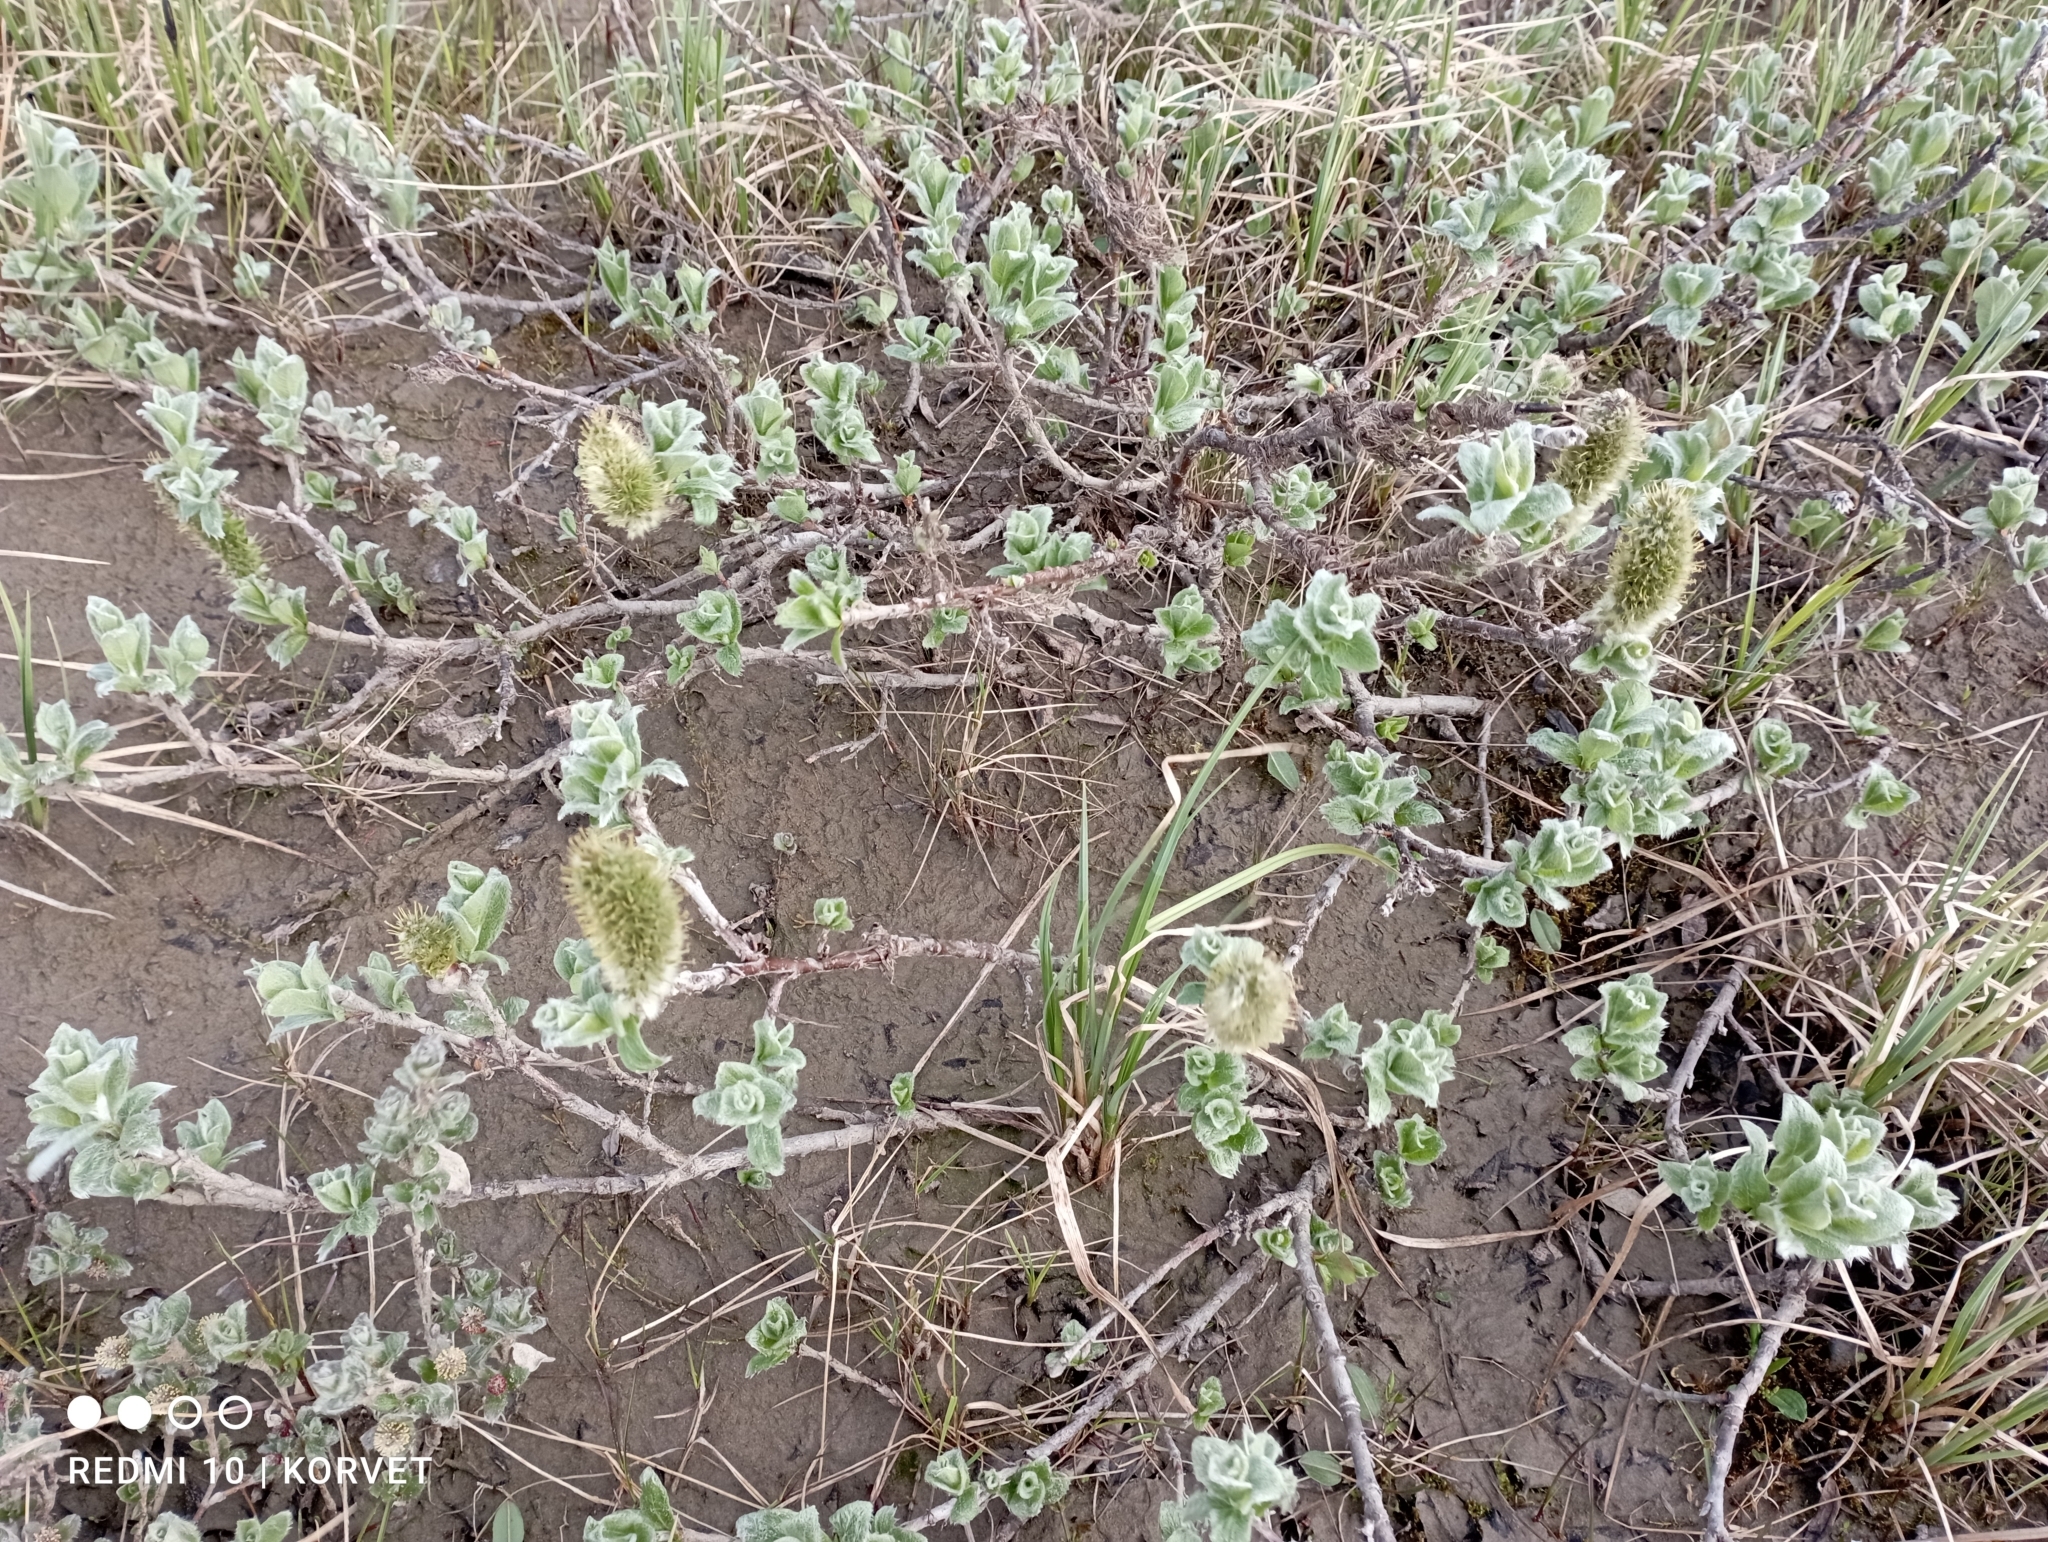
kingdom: Plantae
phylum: Tracheophyta
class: Magnoliopsida
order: Malpighiales
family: Salicaceae
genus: Salix
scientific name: Salix lanata
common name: Woolly willow
